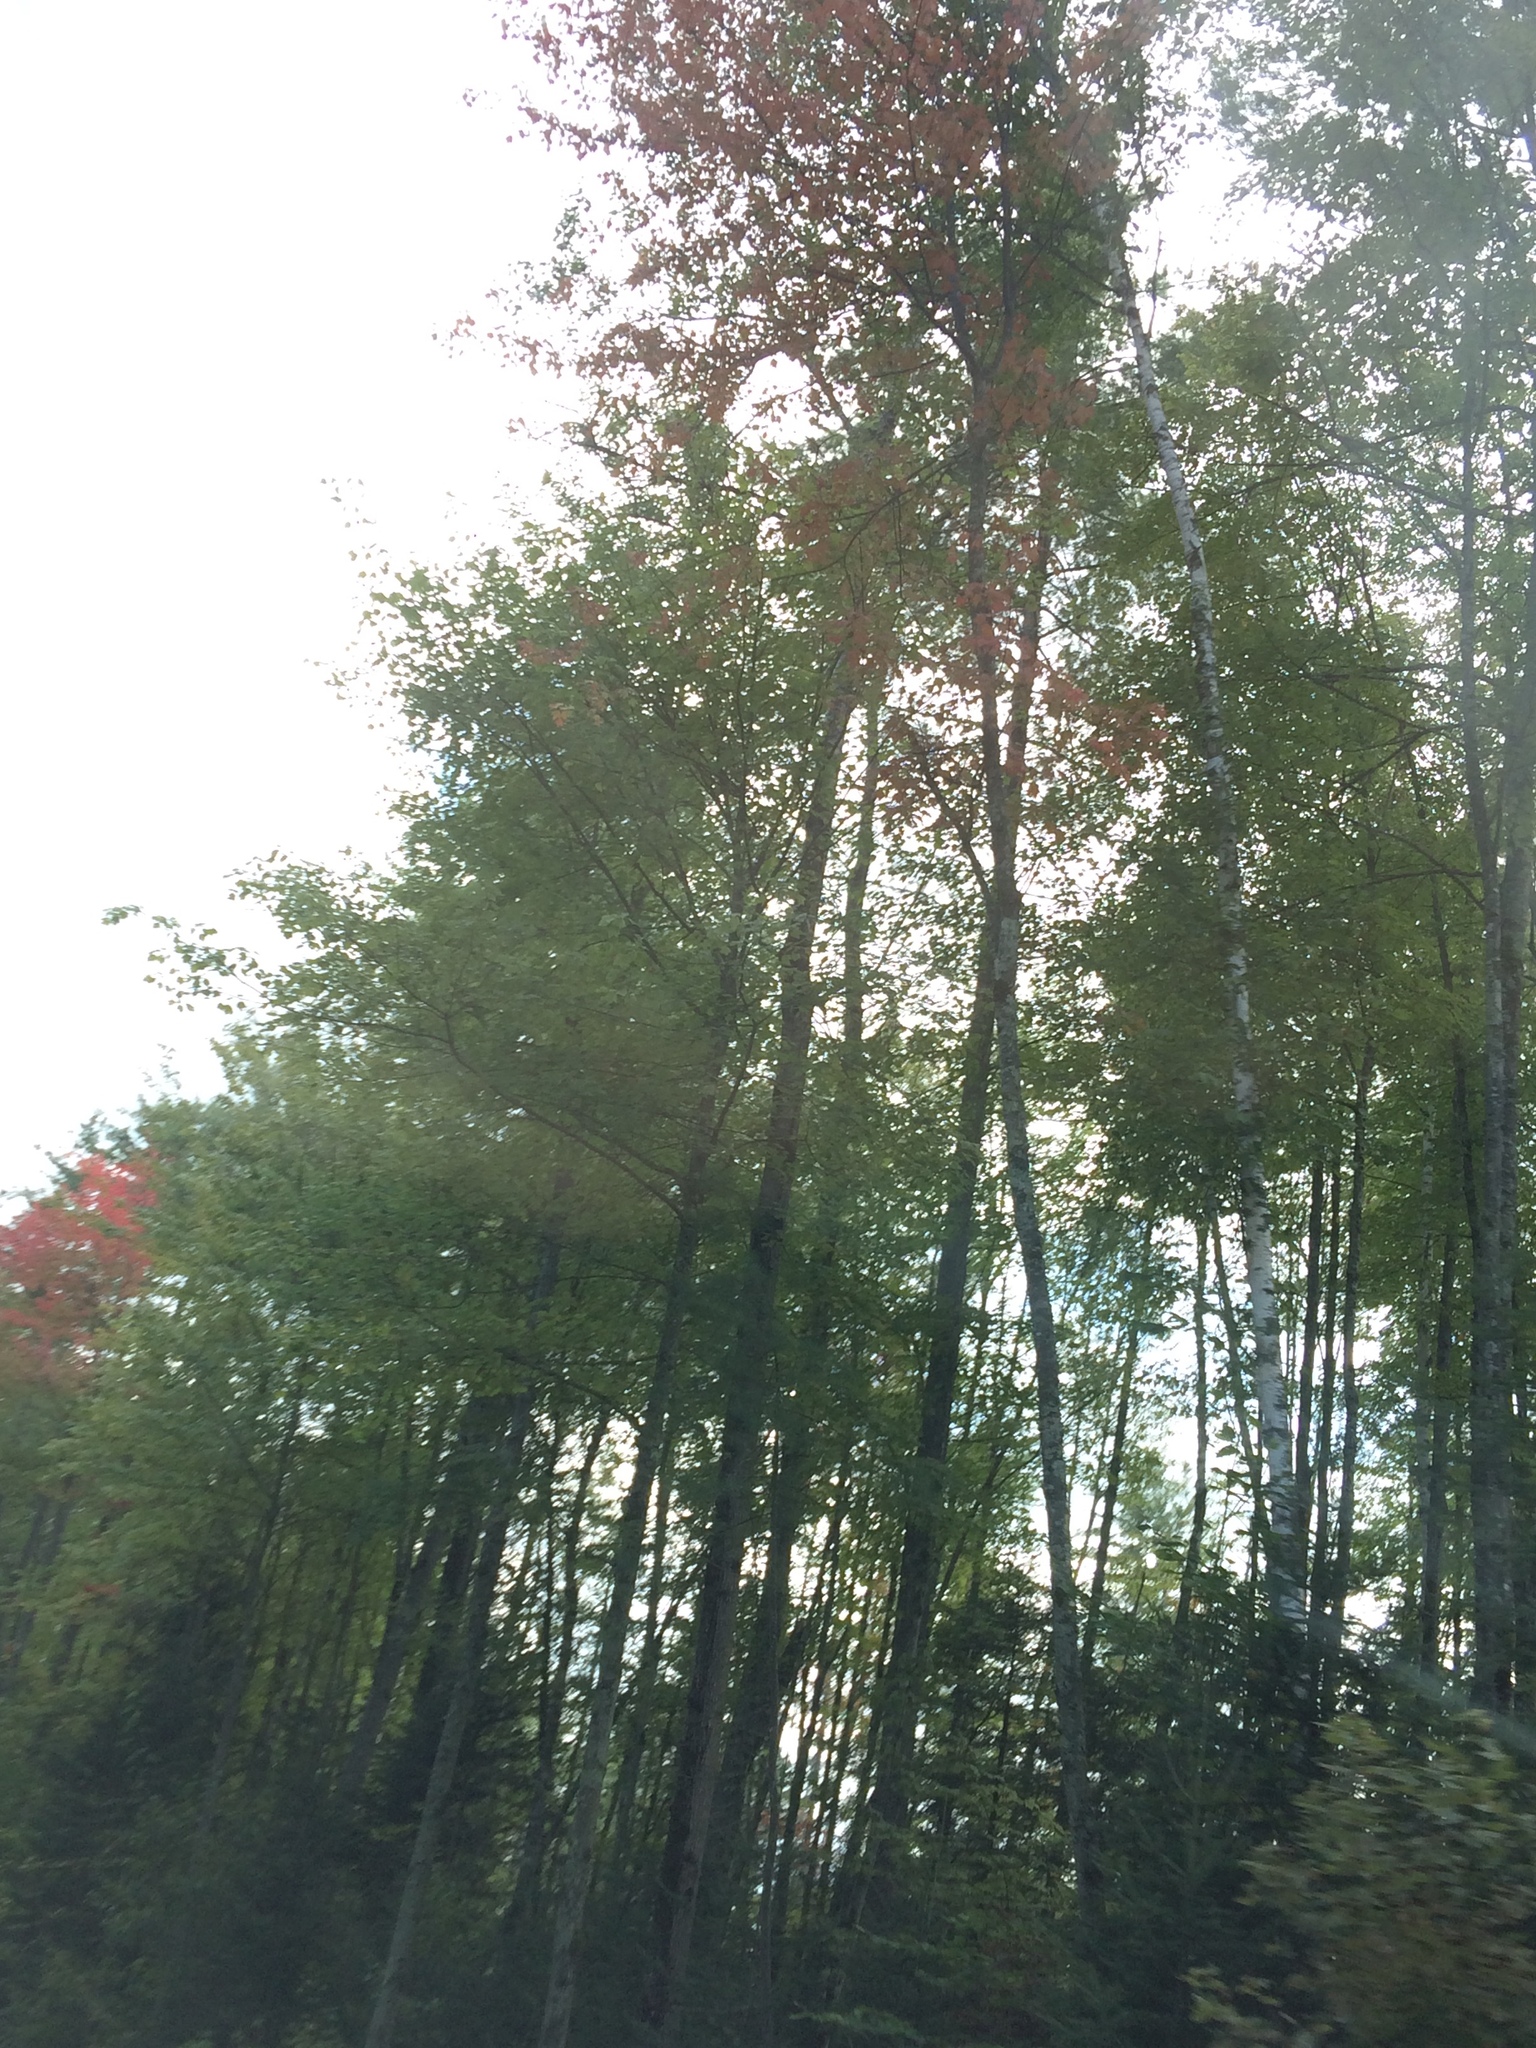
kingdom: Plantae
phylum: Tracheophyta
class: Magnoliopsida
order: Sapindales
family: Sapindaceae
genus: Acer
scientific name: Acer rubrum
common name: Red maple
